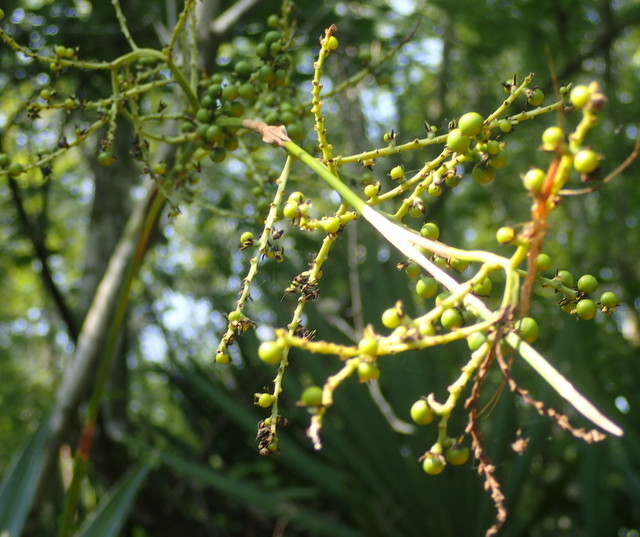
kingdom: Plantae
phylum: Tracheophyta
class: Liliopsida
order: Arecales
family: Arecaceae
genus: Sabal
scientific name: Sabal minor
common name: Dwarf palmetto
